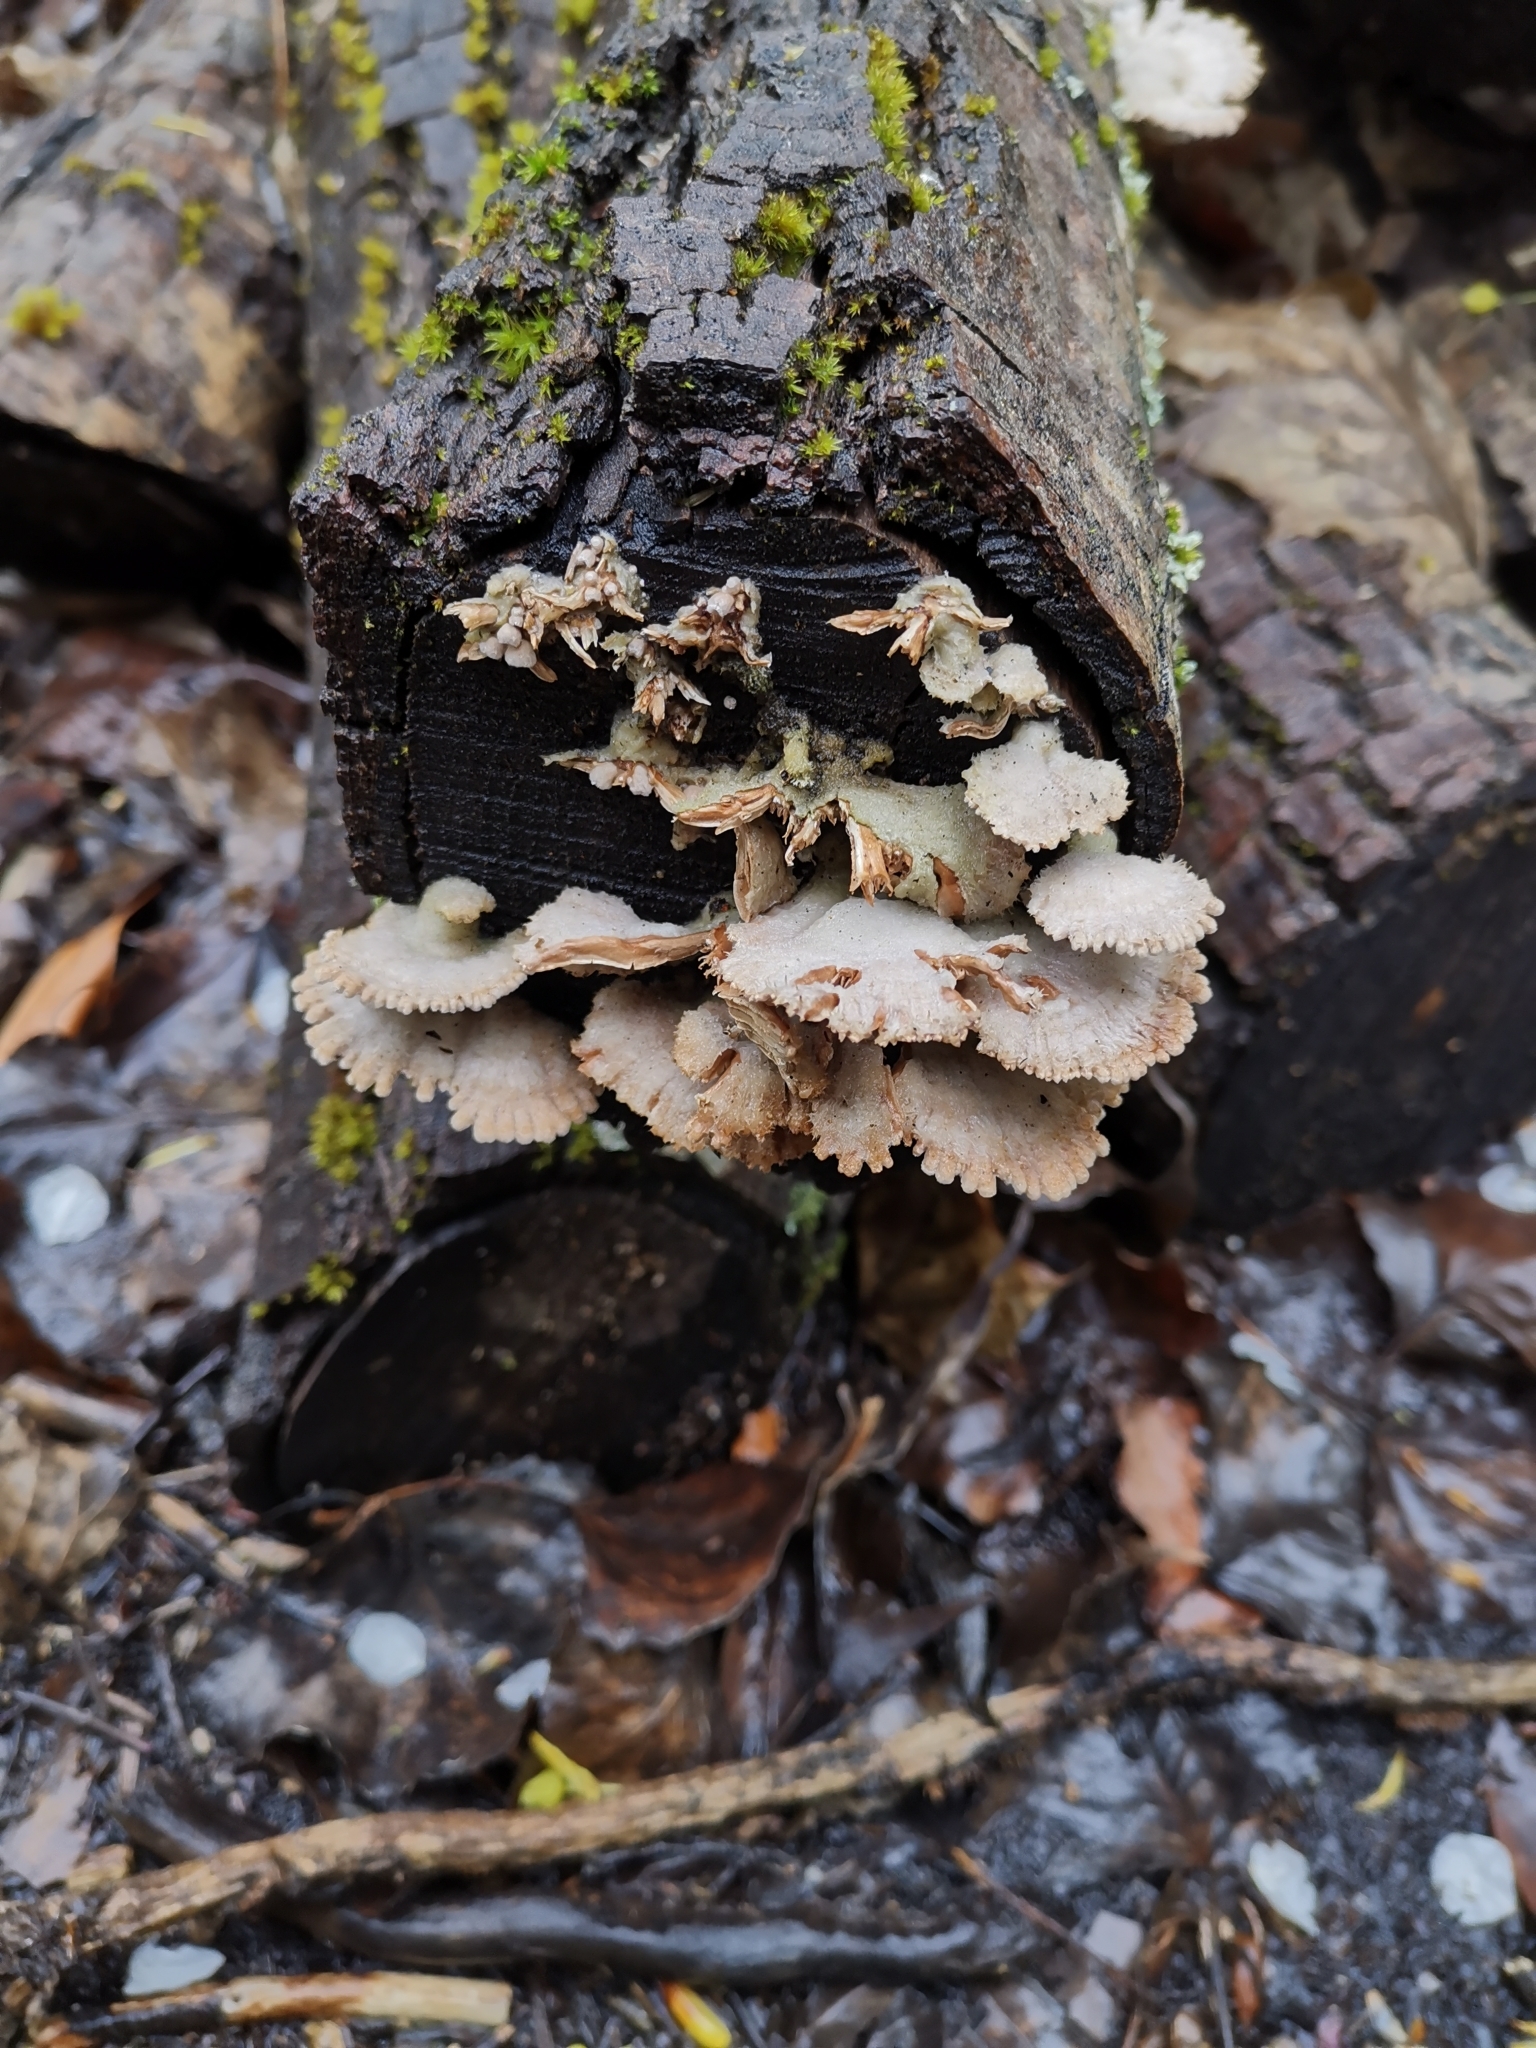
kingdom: Fungi
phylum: Basidiomycota
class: Agaricomycetes
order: Agaricales
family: Schizophyllaceae
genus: Schizophyllum
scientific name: Schizophyllum commune
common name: Common porecrust
